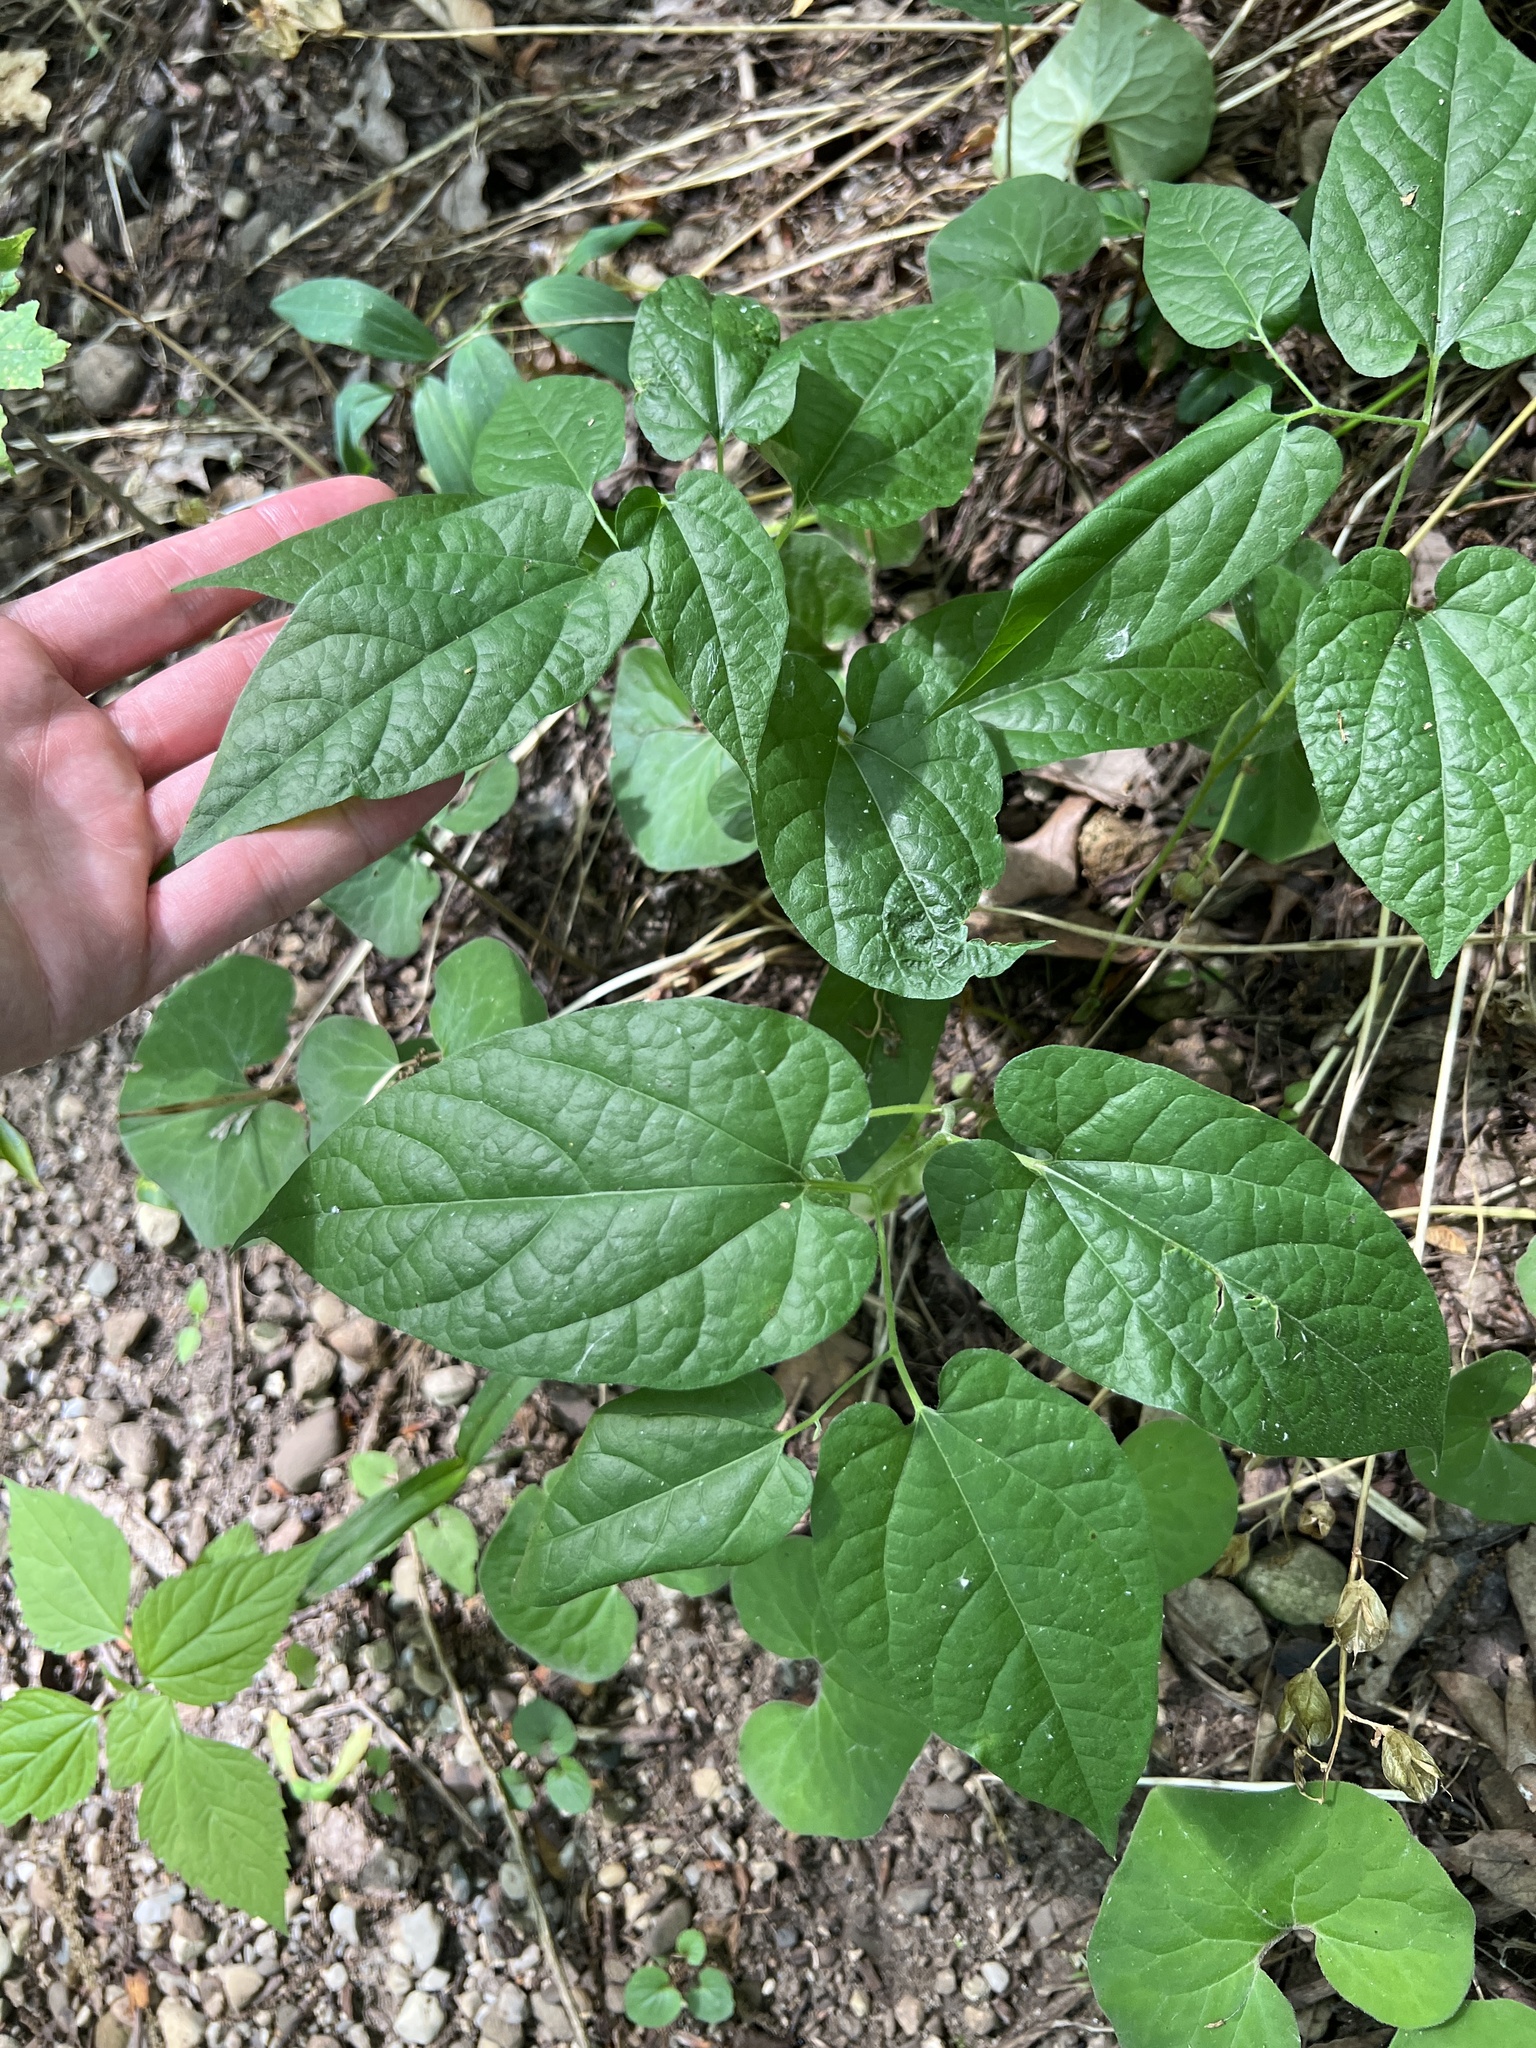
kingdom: Plantae
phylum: Tracheophyta
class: Magnoliopsida
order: Piperales
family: Aristolochiaceae
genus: Endodeca
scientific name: Endodeca serpentaria
